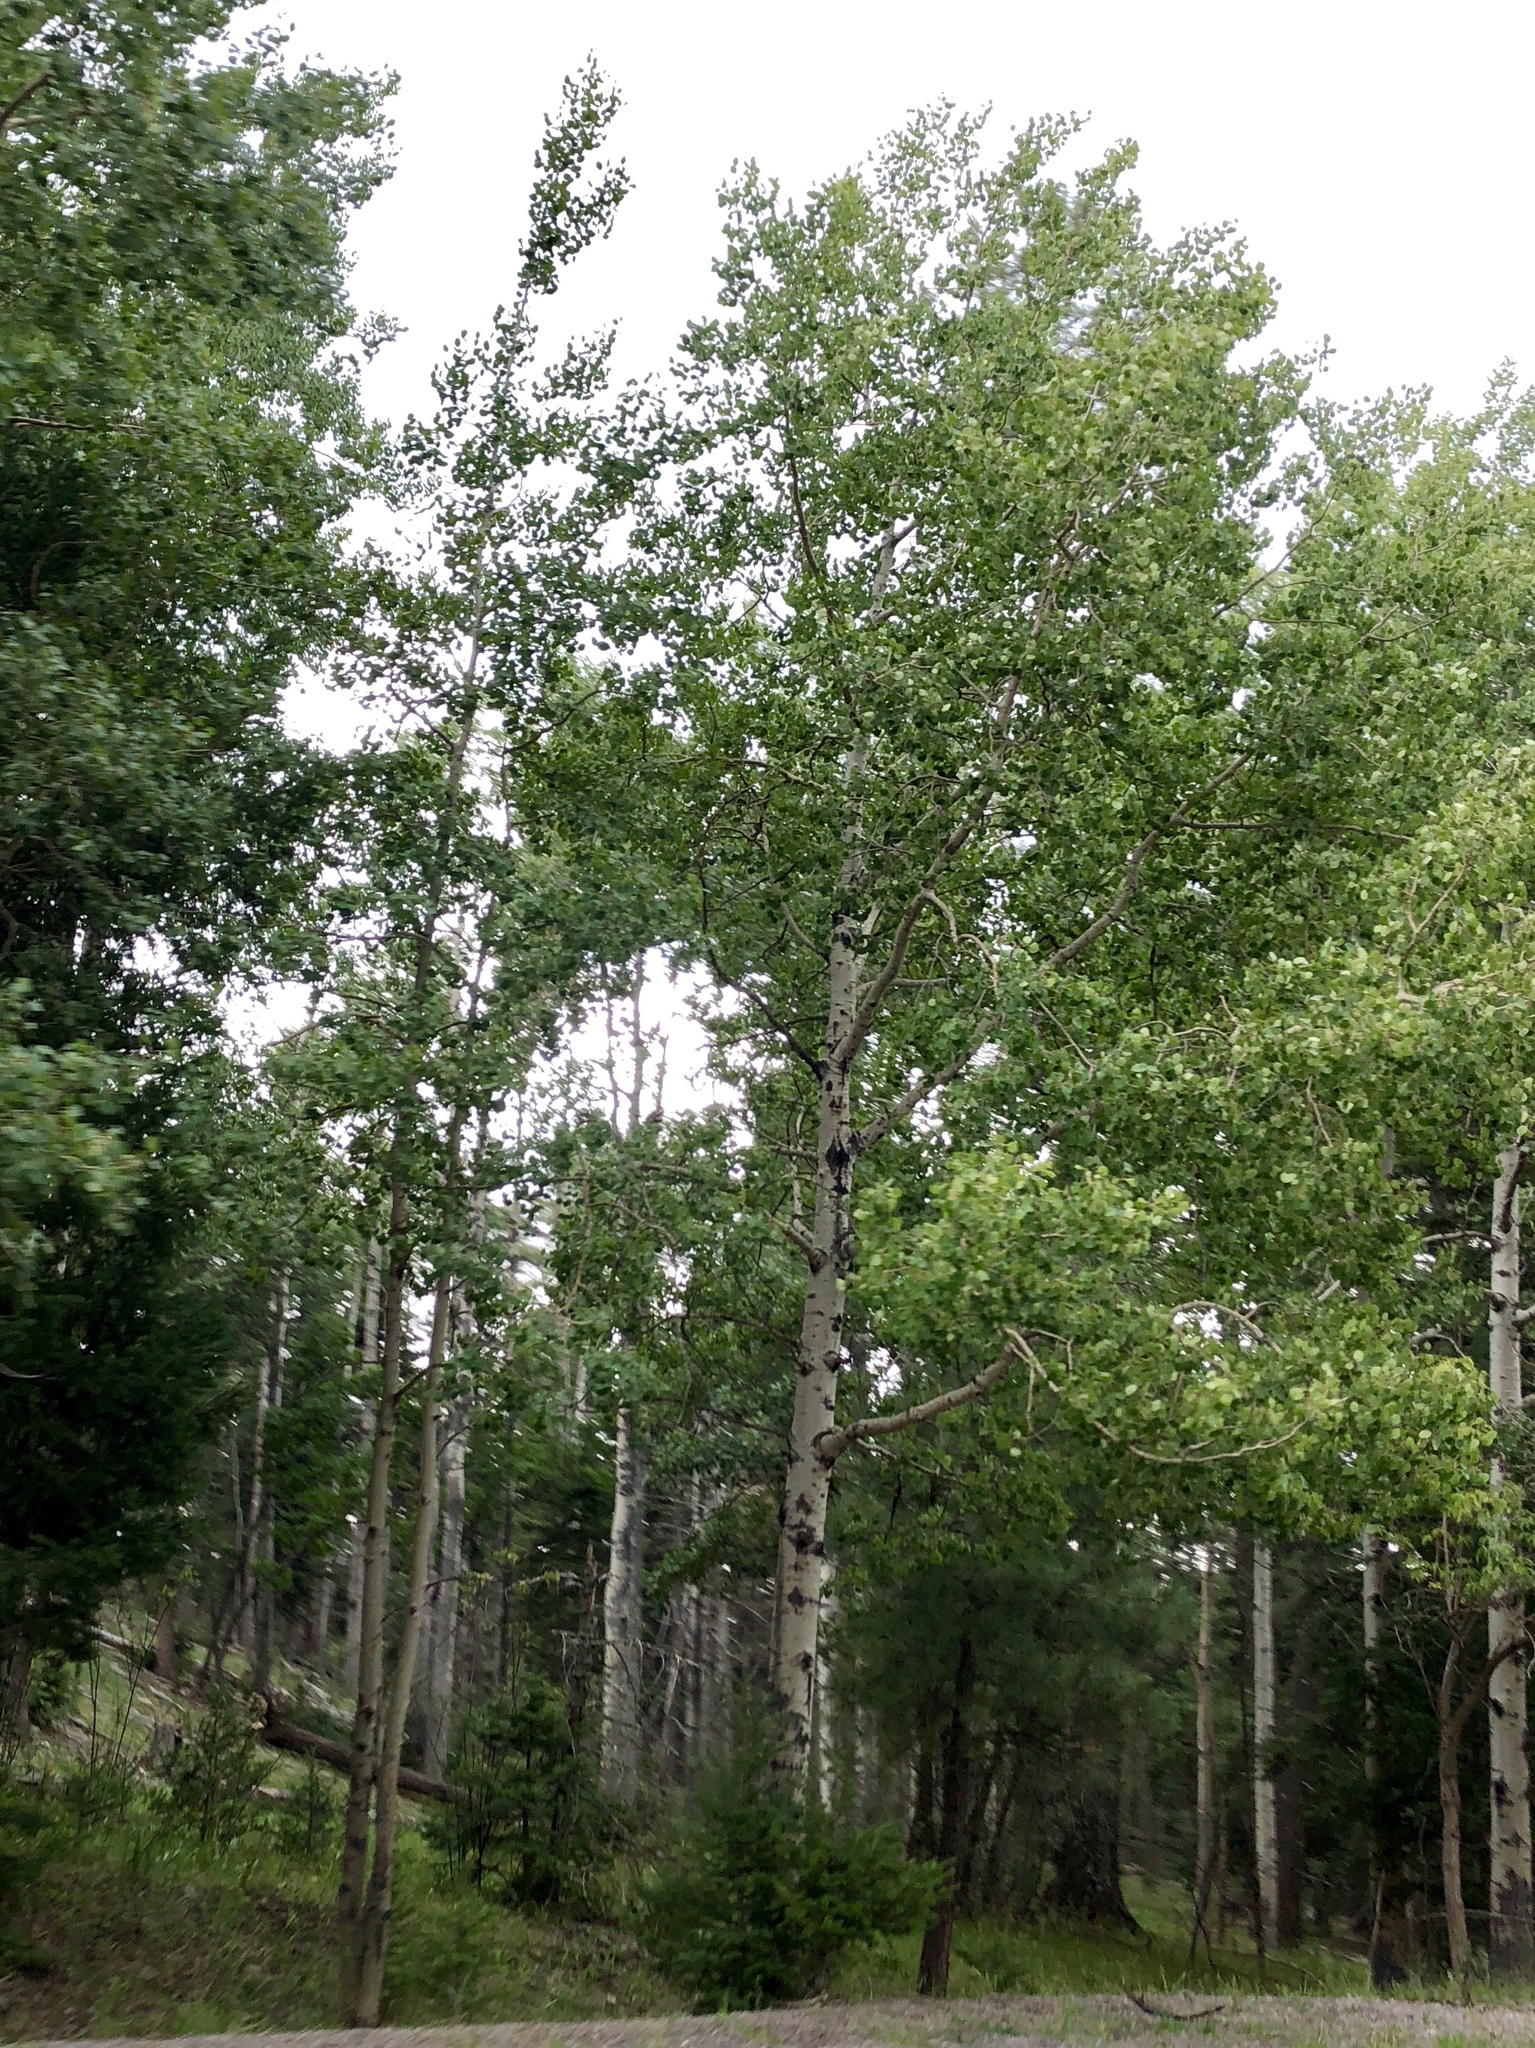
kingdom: Plantae
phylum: Tracheophyta
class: Magnoliopsida
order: Malpighiales
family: Salicaceae
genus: Populus
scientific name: Populus tremuloides
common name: Quaking aspen
